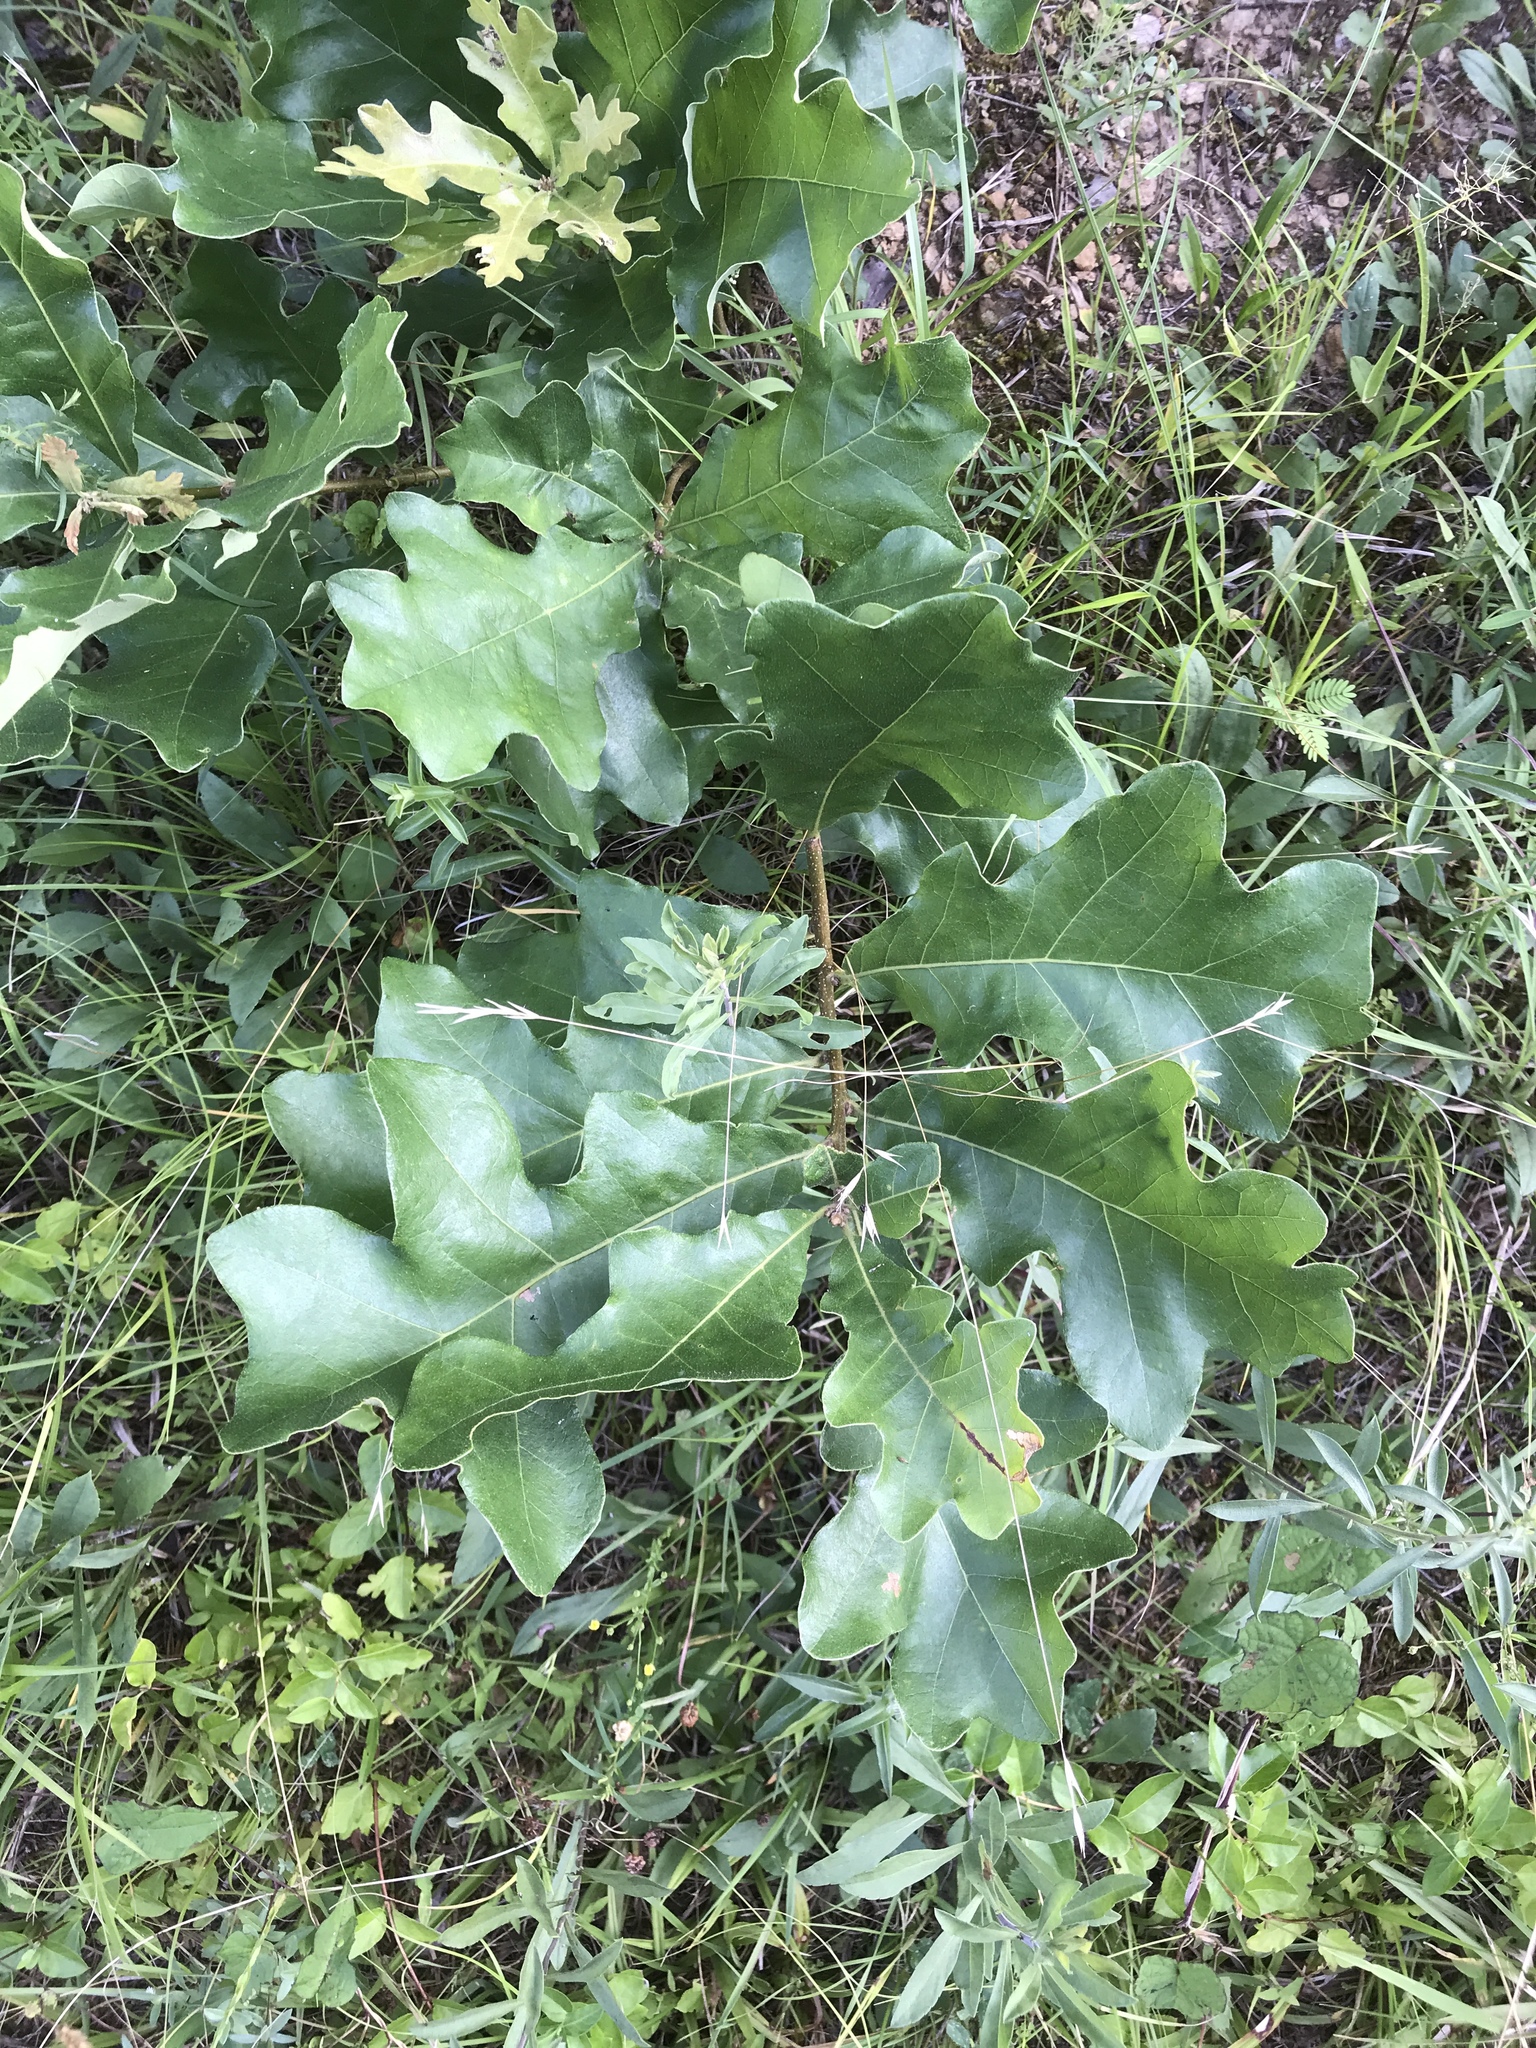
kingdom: Plantae
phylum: Tracheophyta
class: Magnoliopsida
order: Fagales
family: Fagaceae
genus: Quercus
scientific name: Quercus stellata
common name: Post oak
